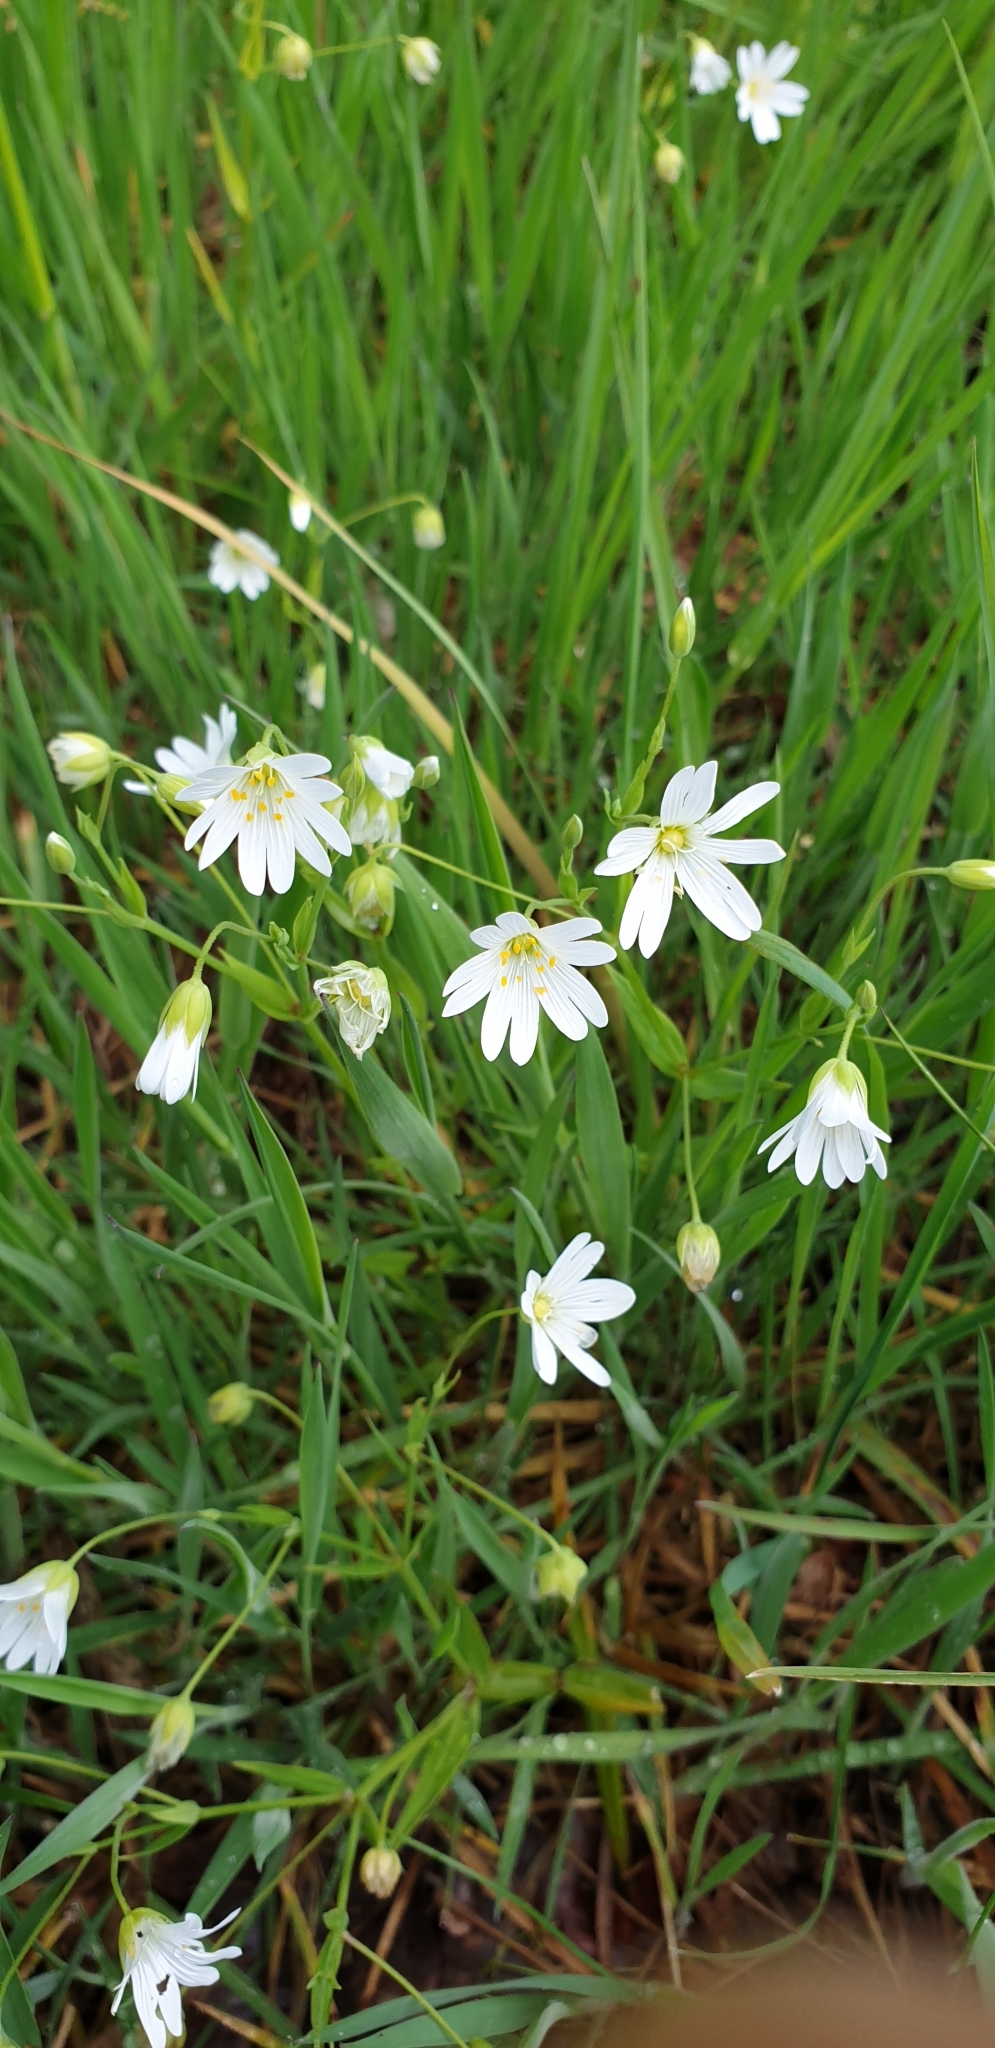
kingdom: Plantae
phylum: Tracheophyta
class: Magnoliopsida
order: Caryophyllales
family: Caryophyllaceae
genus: Rabelera
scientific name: Rabelera holostea
